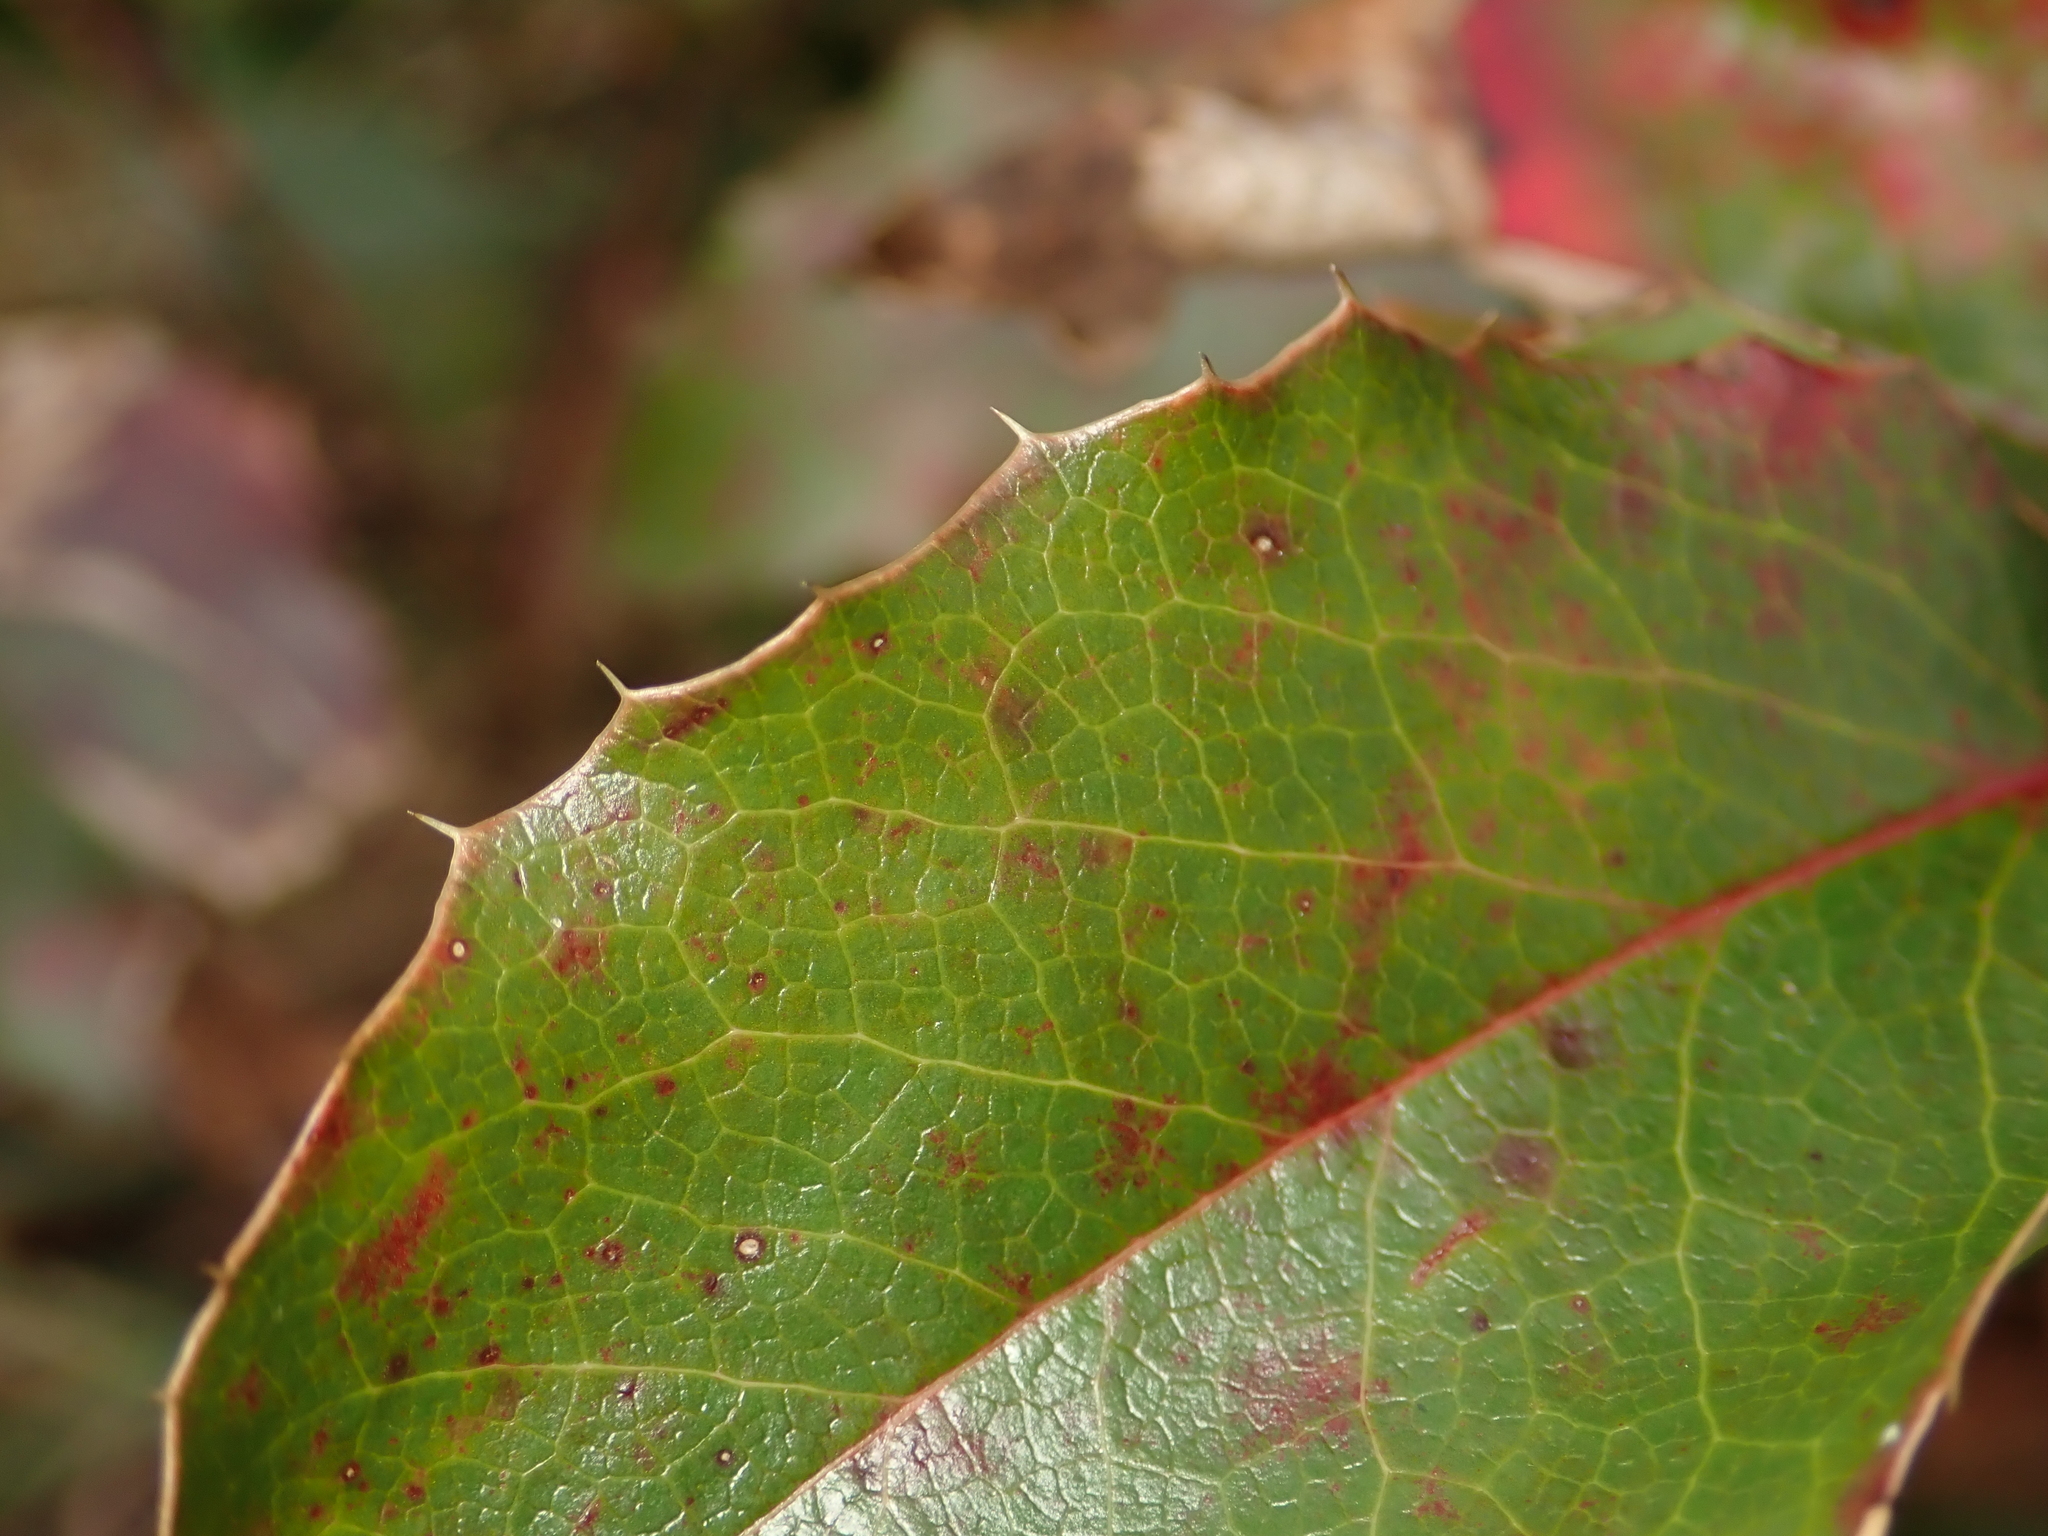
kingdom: Fungi
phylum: Basidiomycota
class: Pucciniomycetes
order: Pucciniales
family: Pucciniaceae
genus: Cumminsiella
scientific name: Cumminsiella mirabilissima
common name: Mahonia rust
